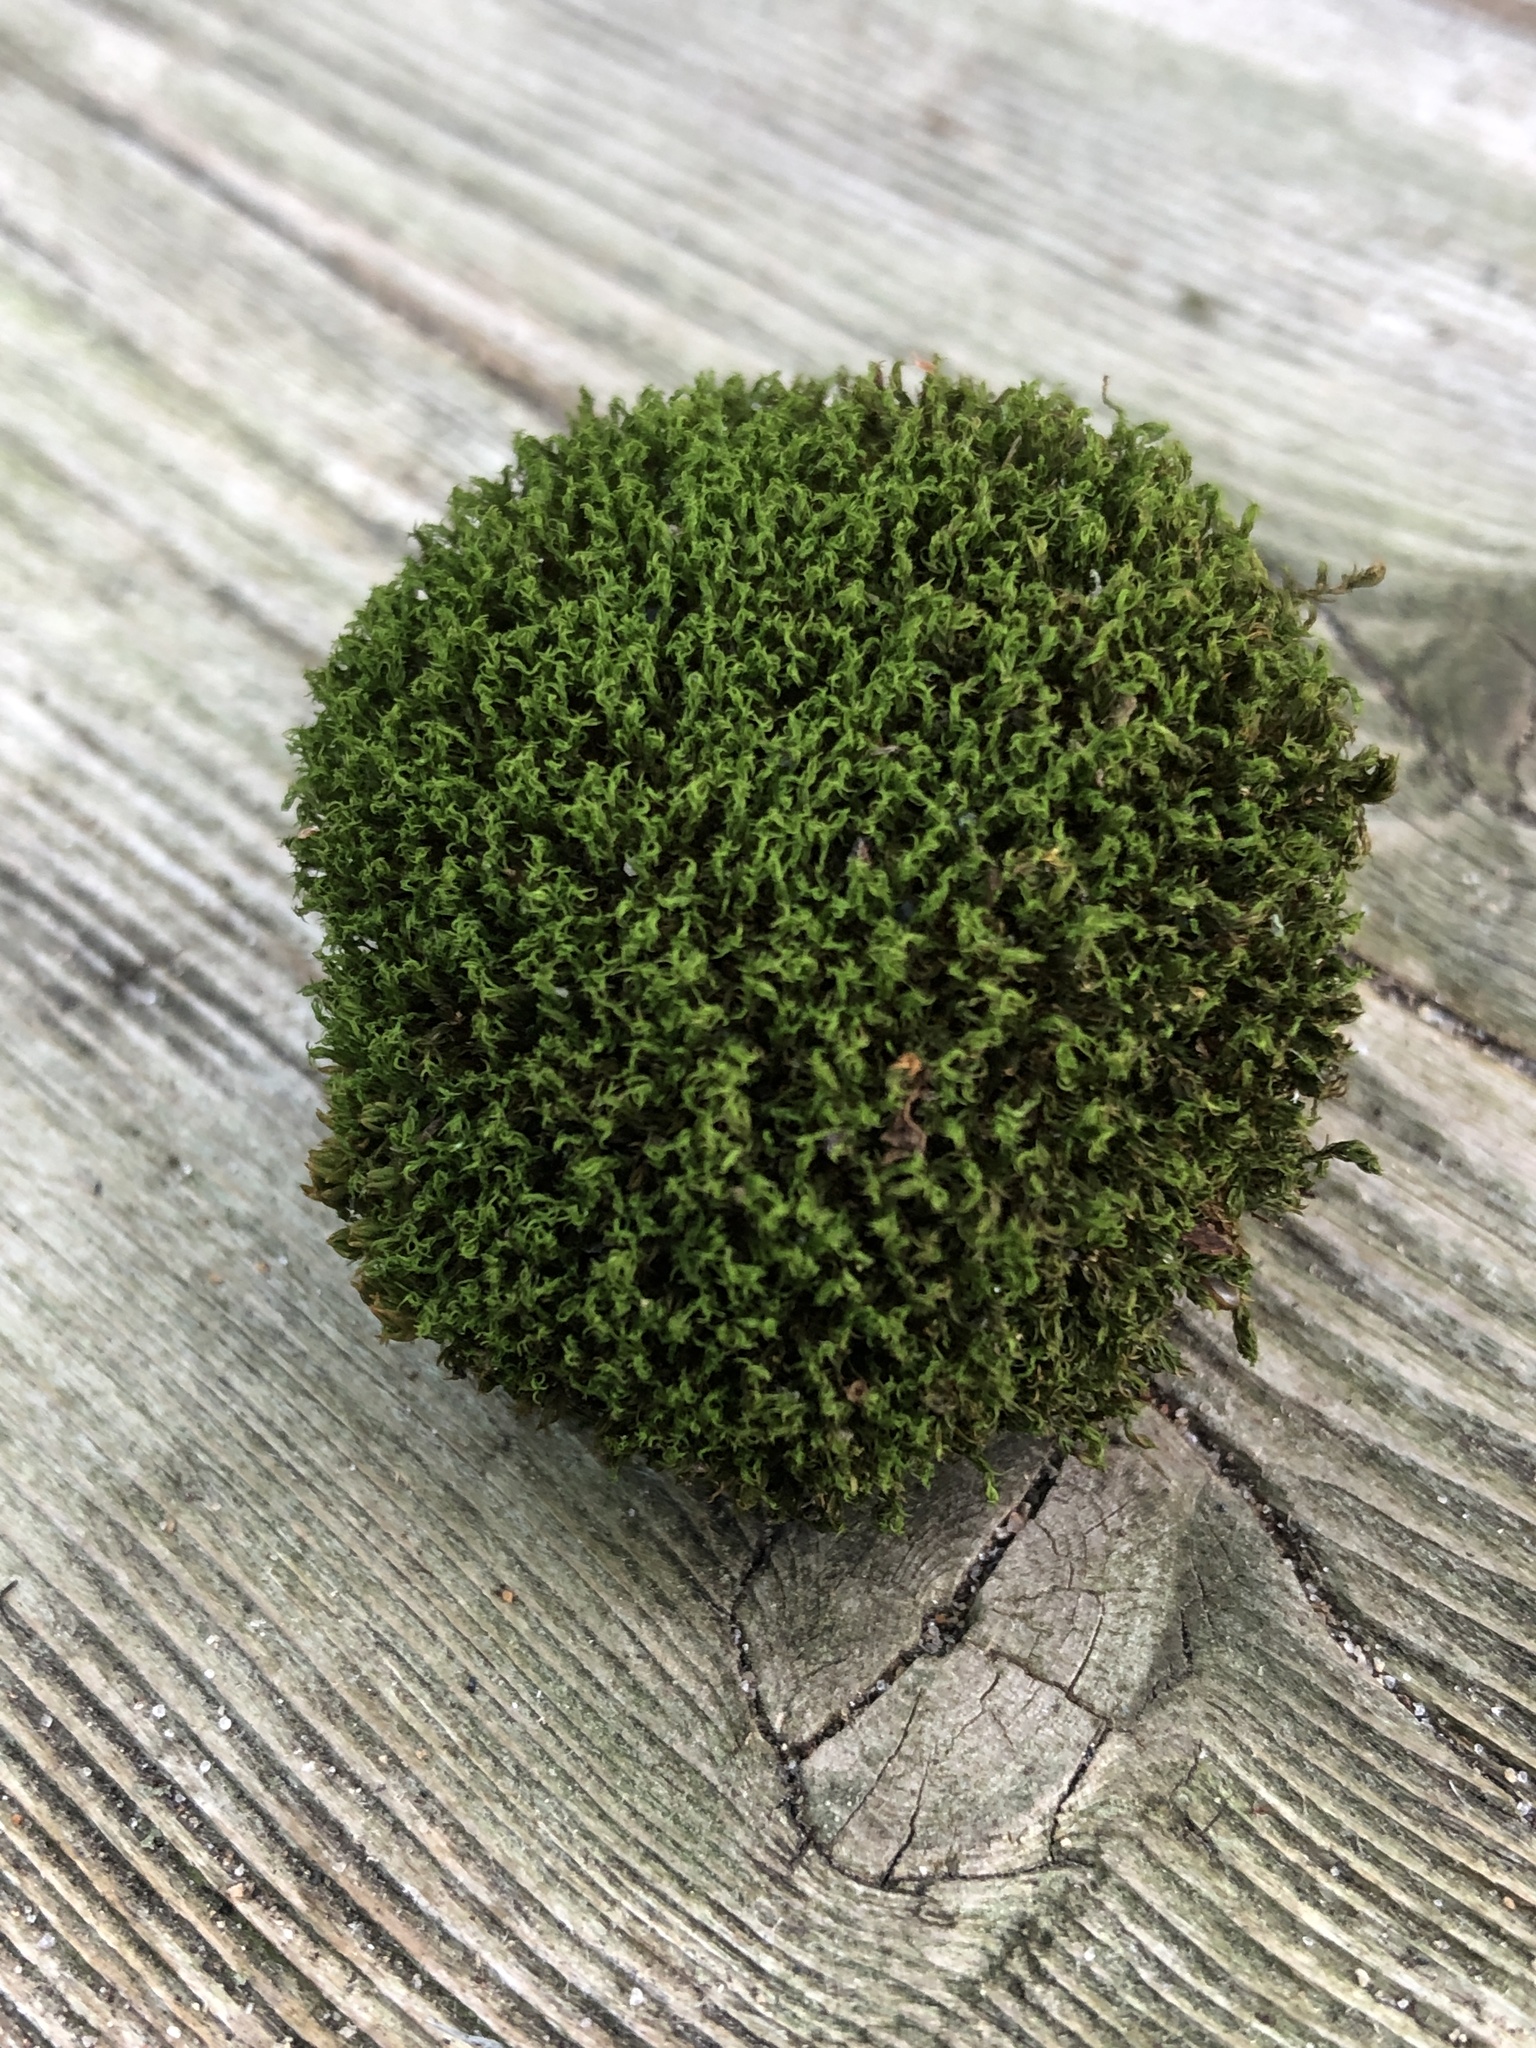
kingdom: Plantae
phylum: Bryophyta
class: Bryopsida
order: Dicranales
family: Ditrichaceae
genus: Ceratodon
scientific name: Ceratodon purpureus
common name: Redshank
